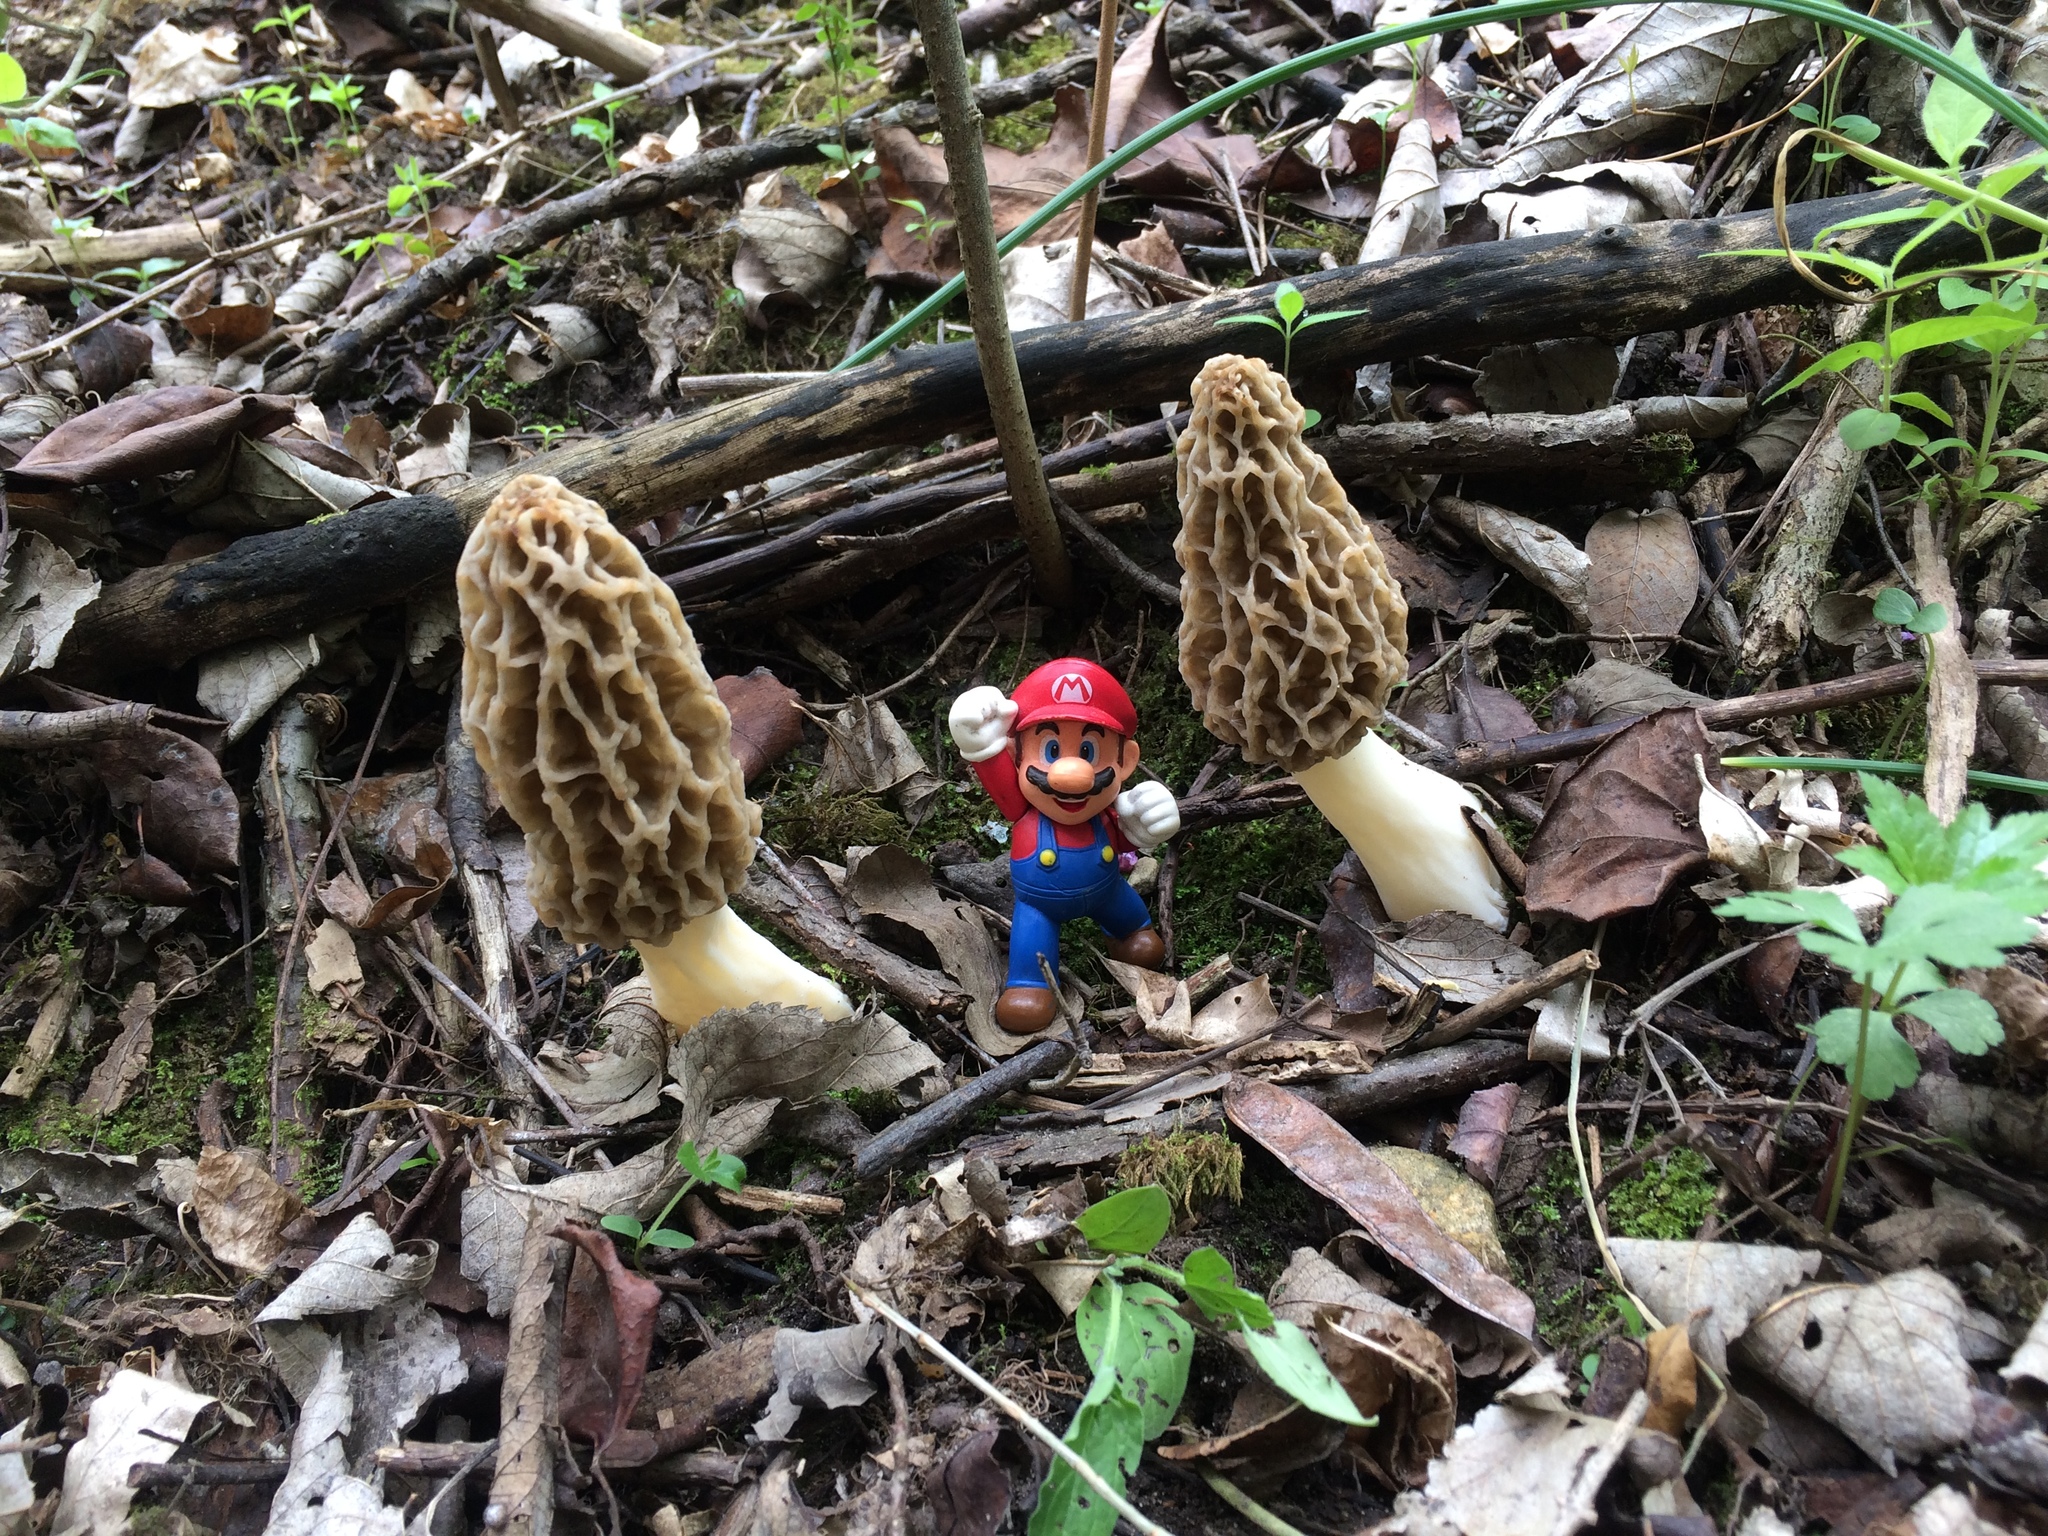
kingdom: Fungi
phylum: Ascomycota
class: Pezizomycetes
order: Pezizales
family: Morchellaceae
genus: Morchella
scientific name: Morchella americana
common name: White morel
